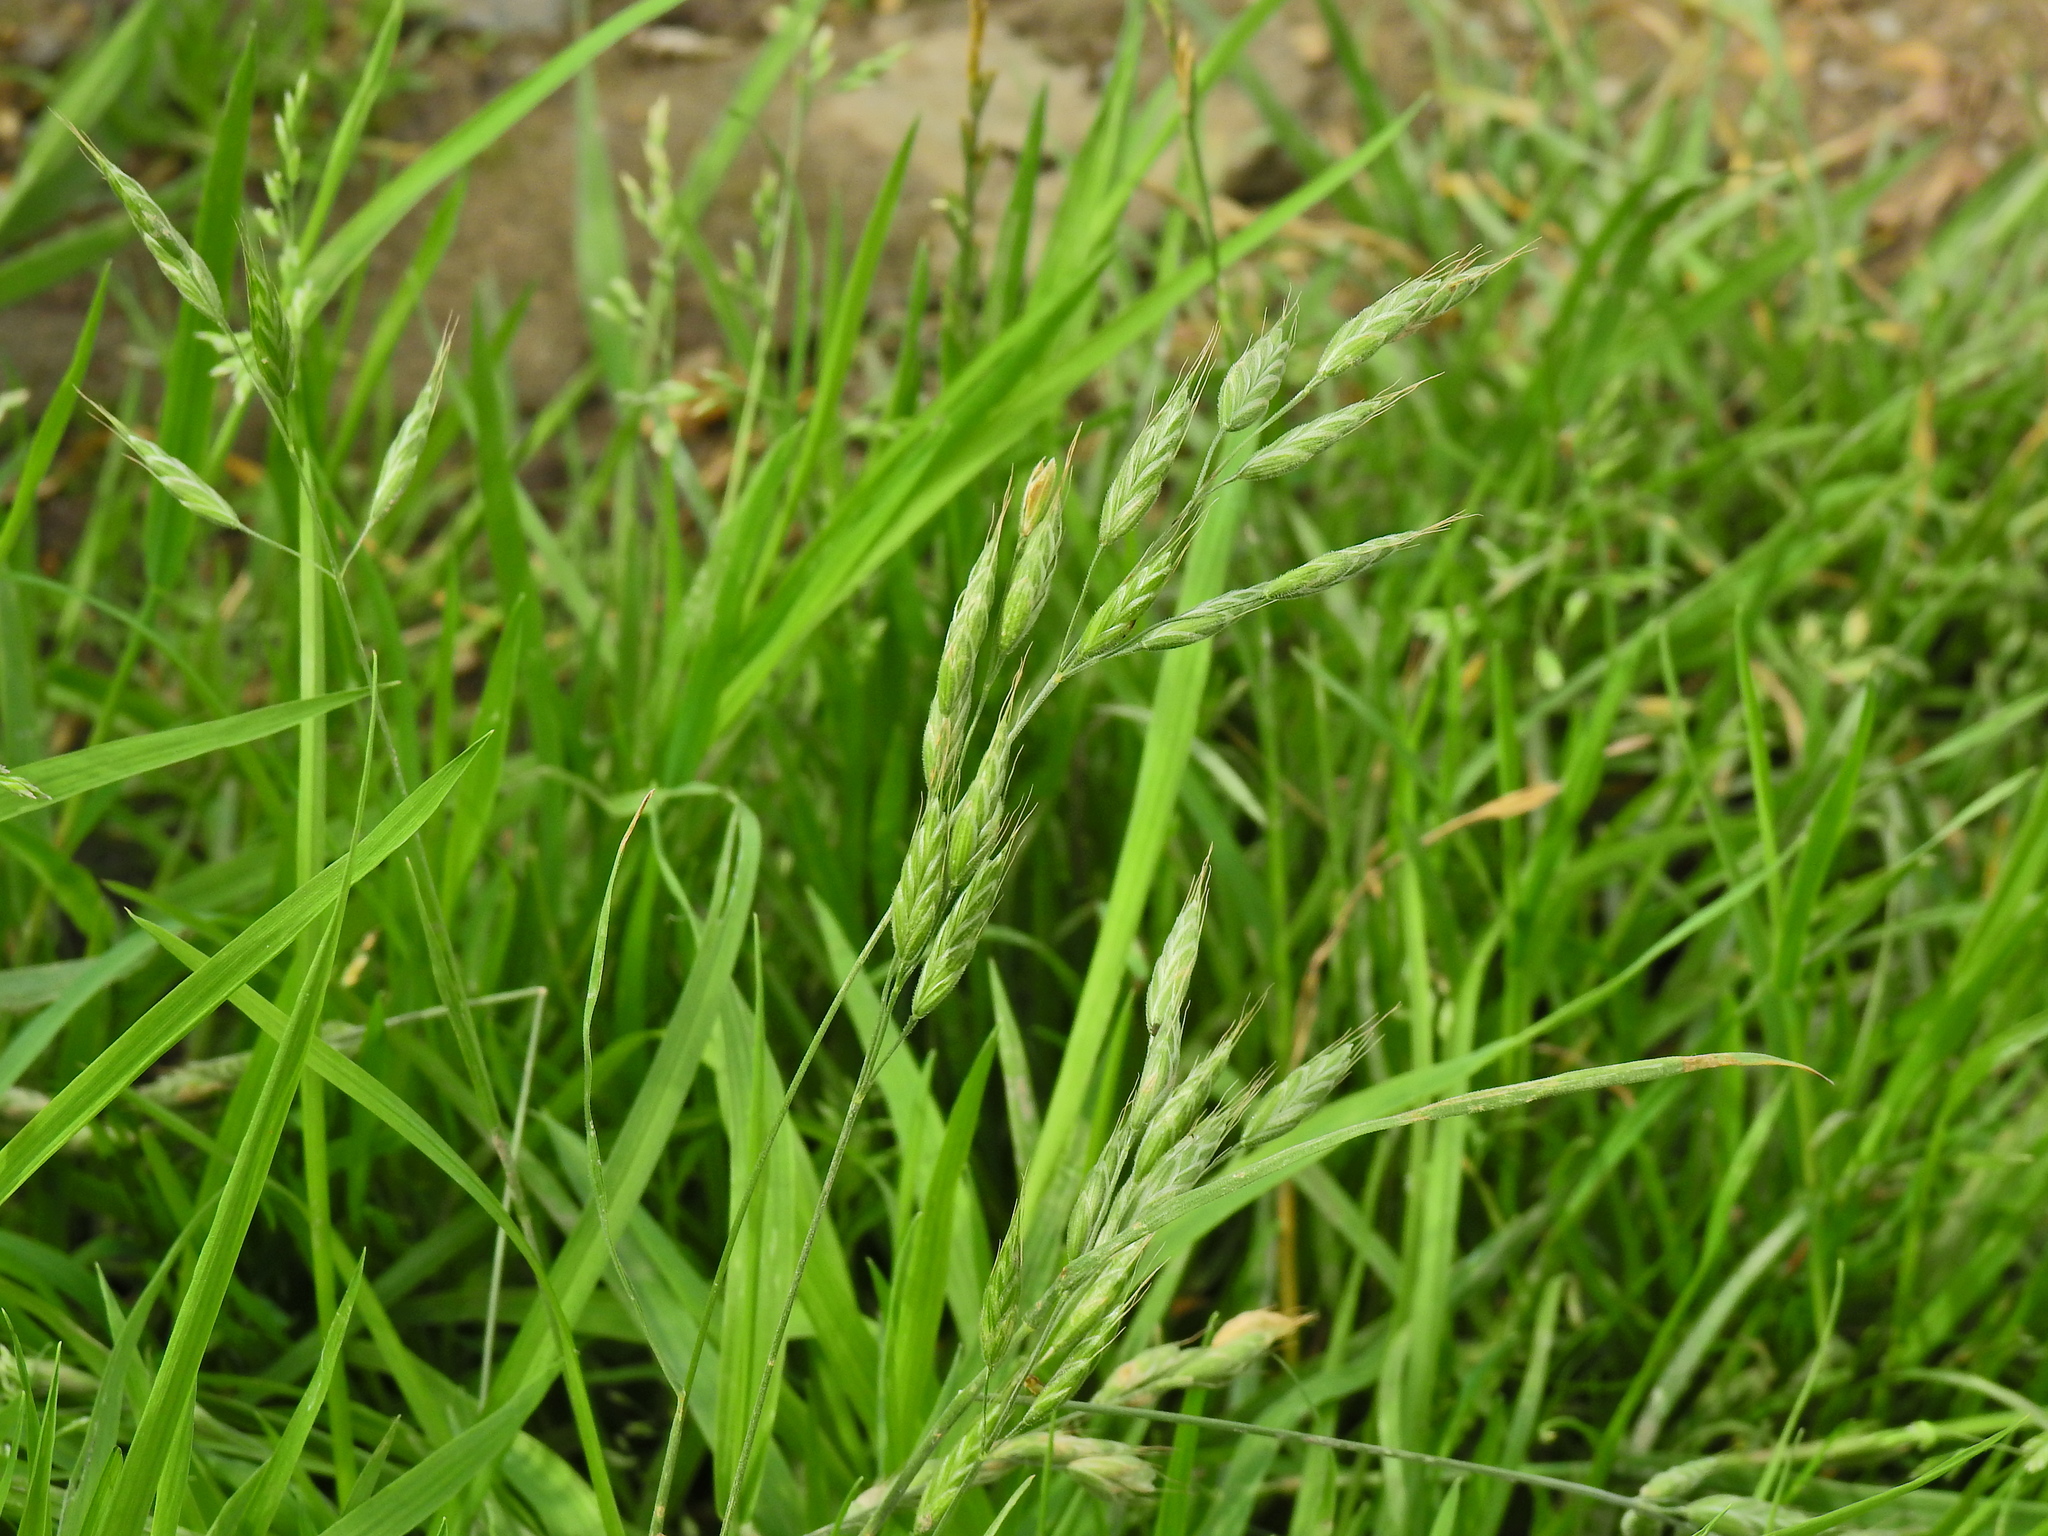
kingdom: Plantae
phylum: Tracheophyta
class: Liliopsida
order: Poales
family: Poaceae
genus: Bromus
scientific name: Bromus hordeaceus
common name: Soft brome
